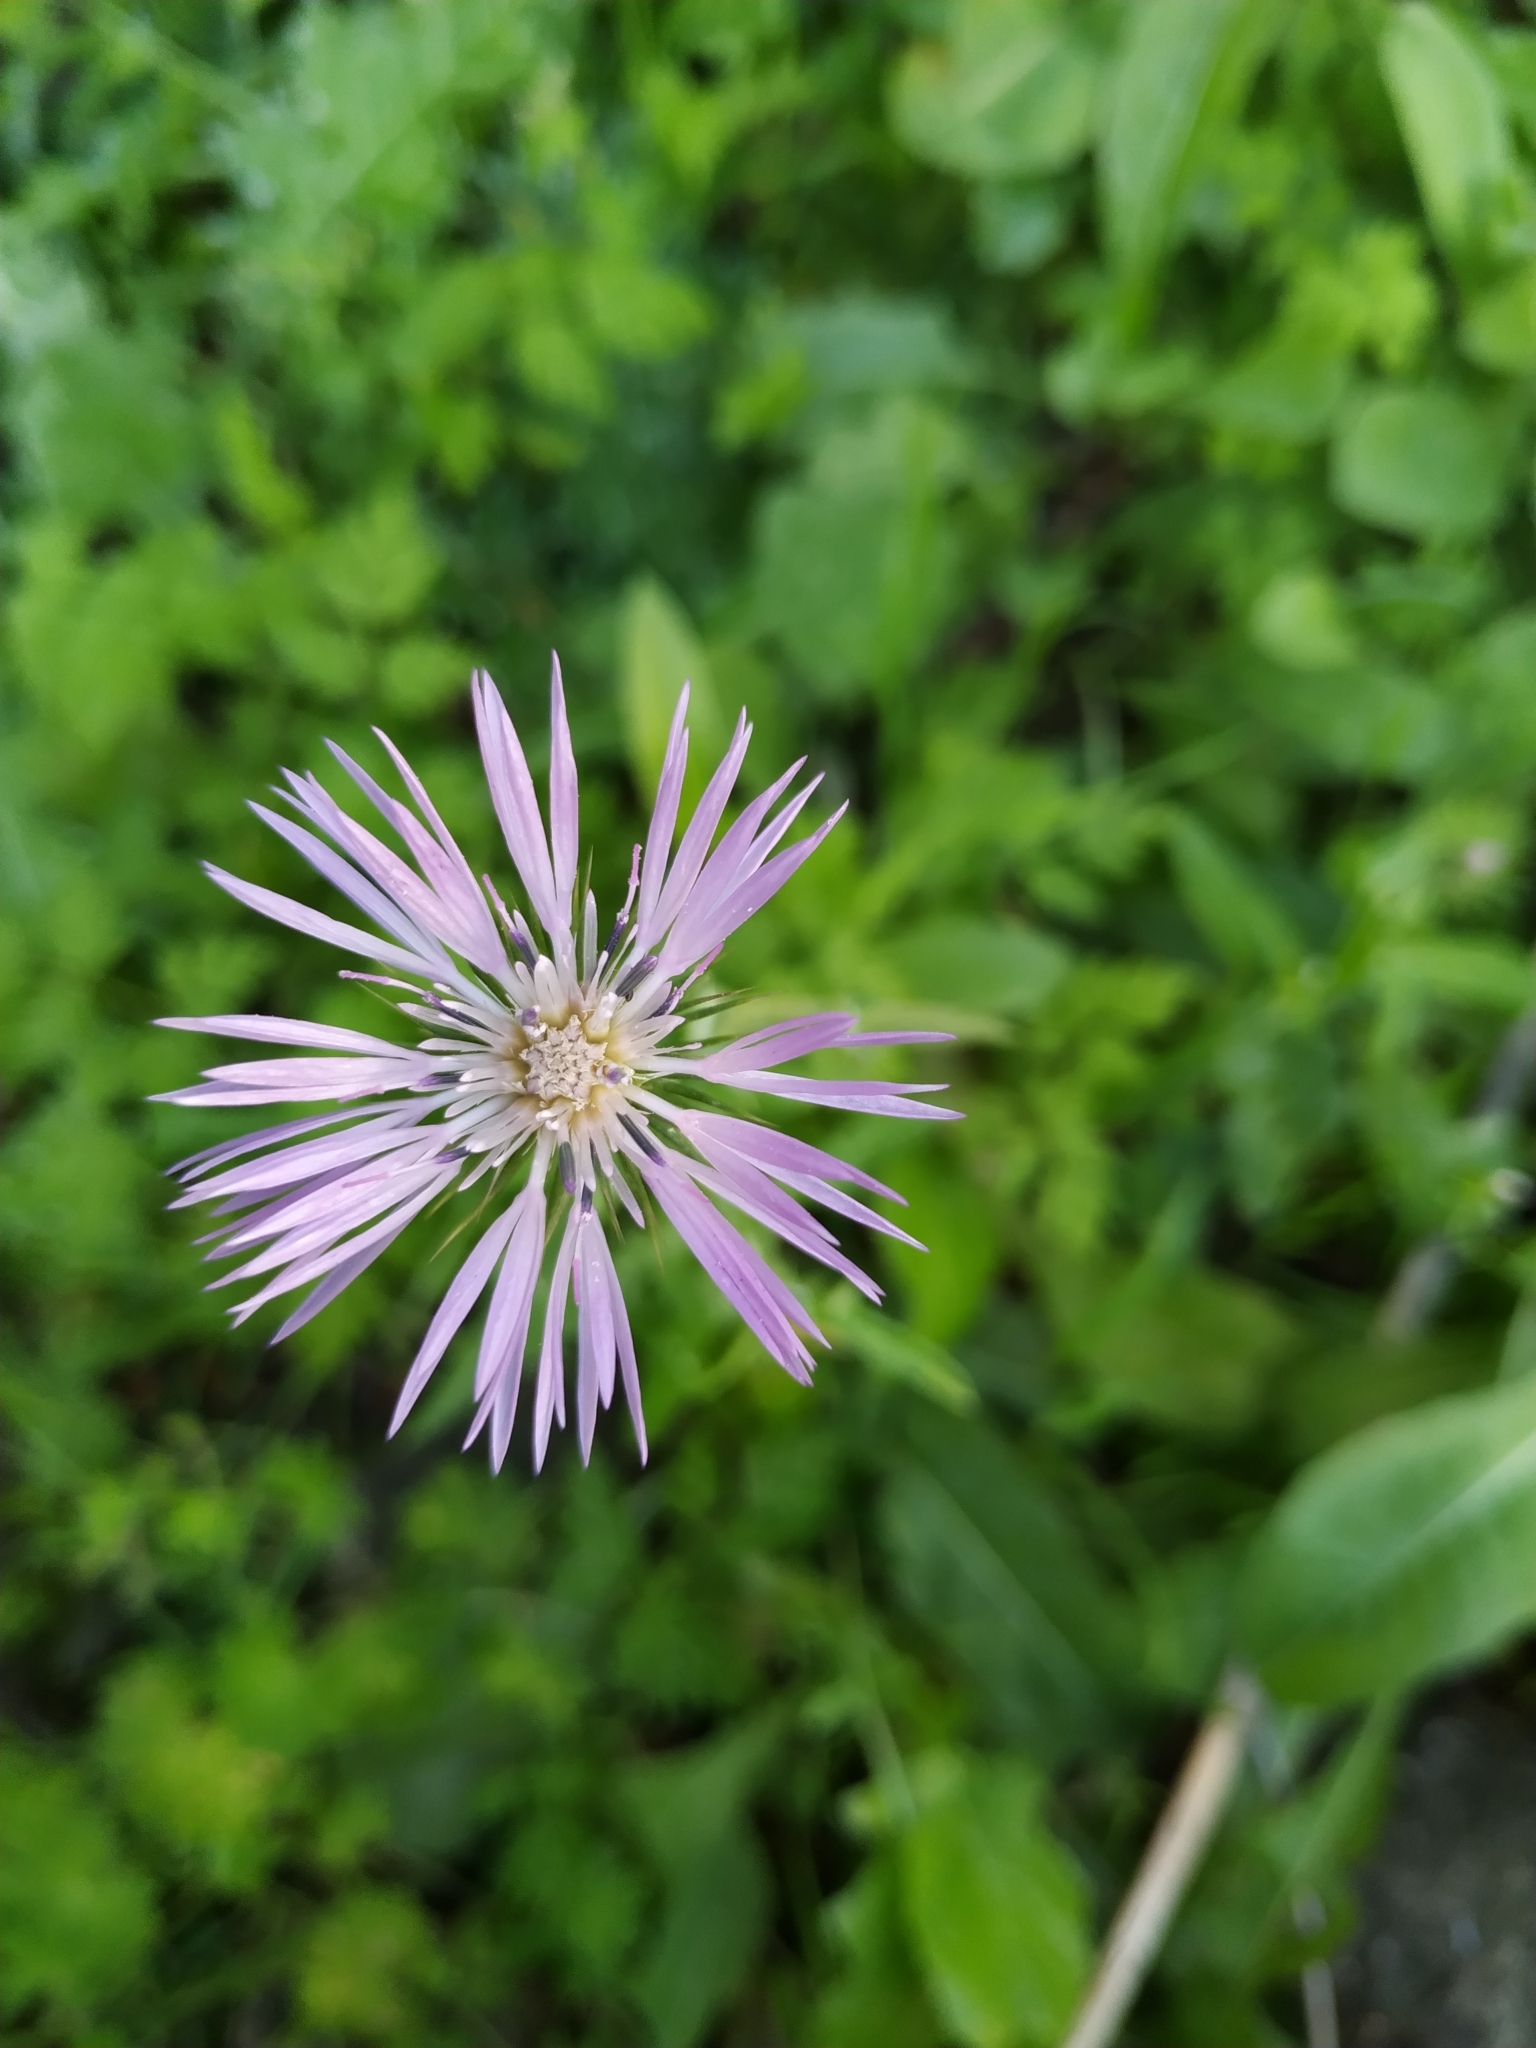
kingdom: Plantae
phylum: Tracheophyta
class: Magnoliopsida
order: Asterales
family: Asteraceae
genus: Galactites
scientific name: Galactites tomentosa
